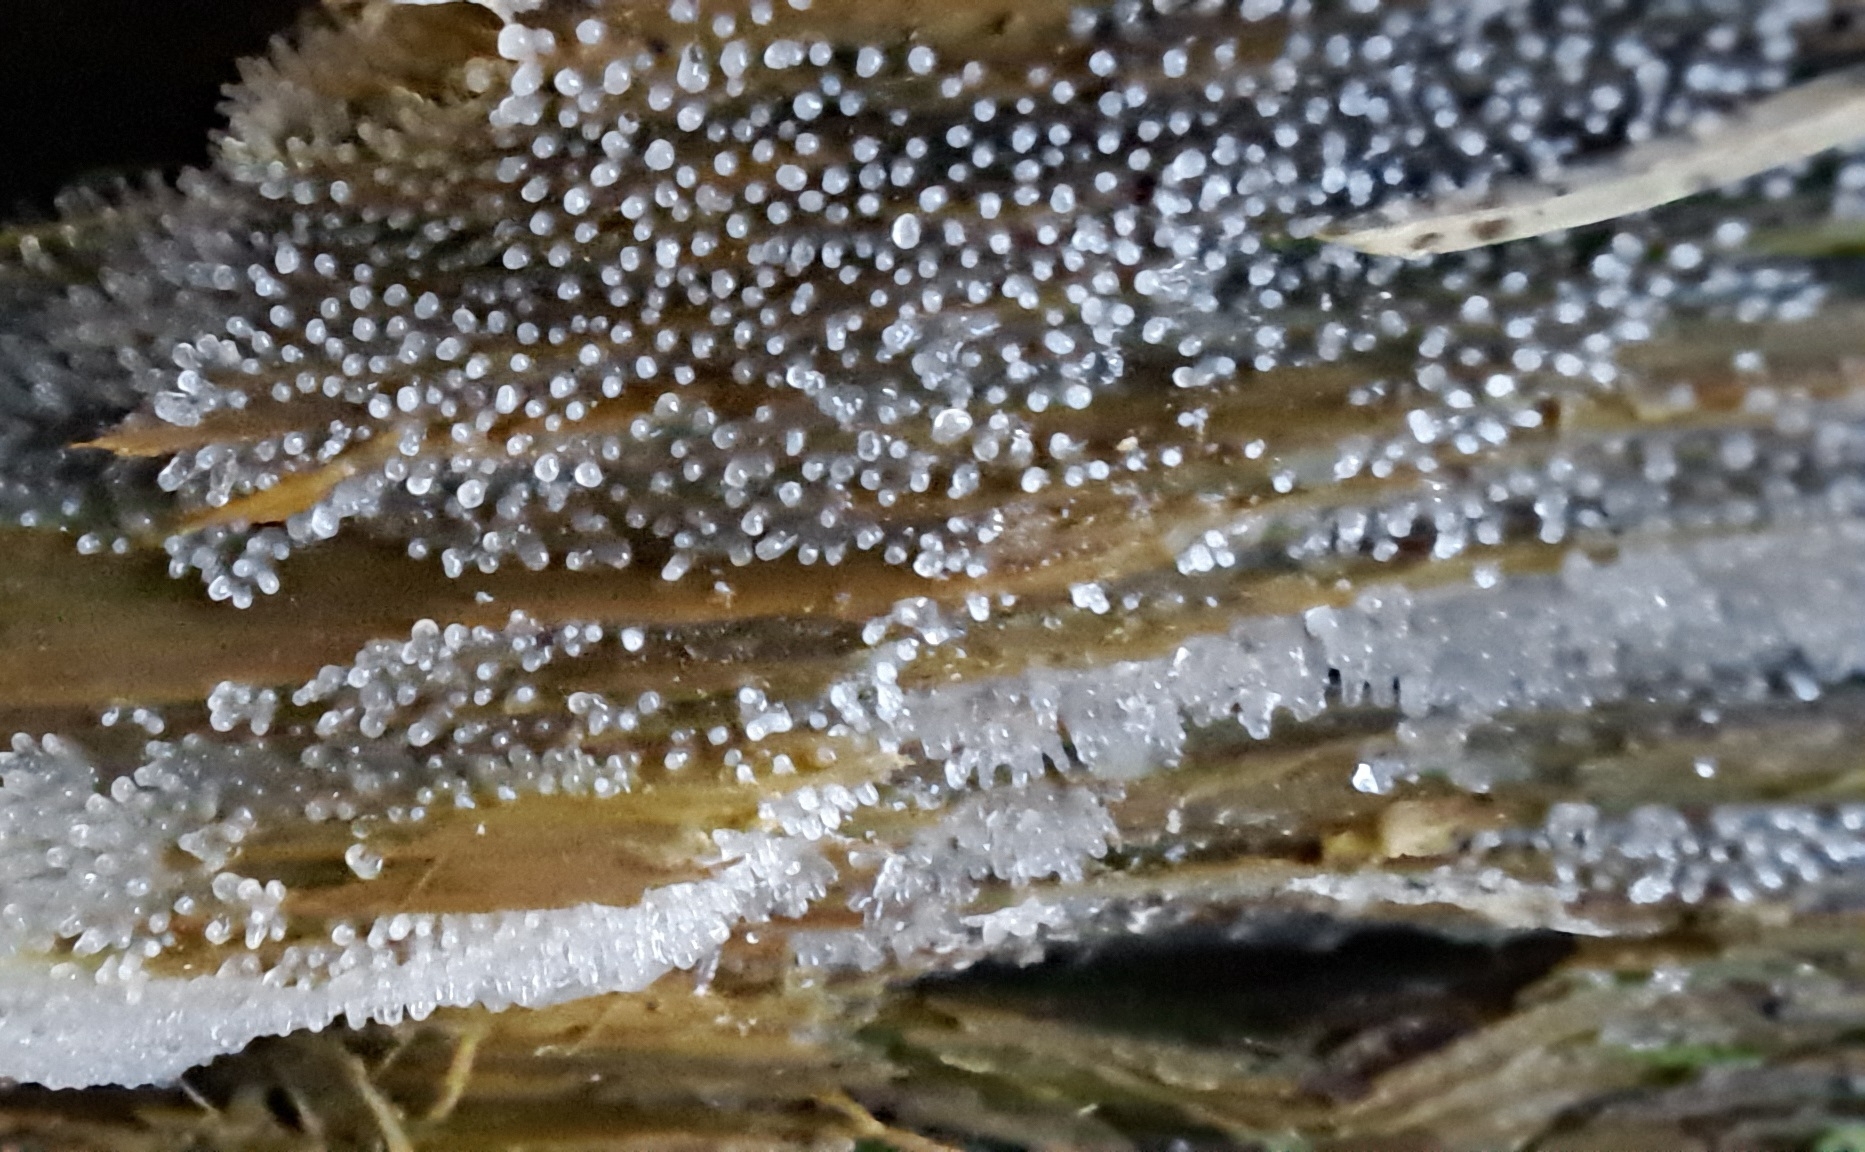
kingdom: Protozoa
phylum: Mycetozoa
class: Protosteliomycetes
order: Ceratiomyxales
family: Ceratiomyxaceae
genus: Ceratiomyxa
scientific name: Ceratiomyxa fruticulosa
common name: Honeycomb coral slime mold
